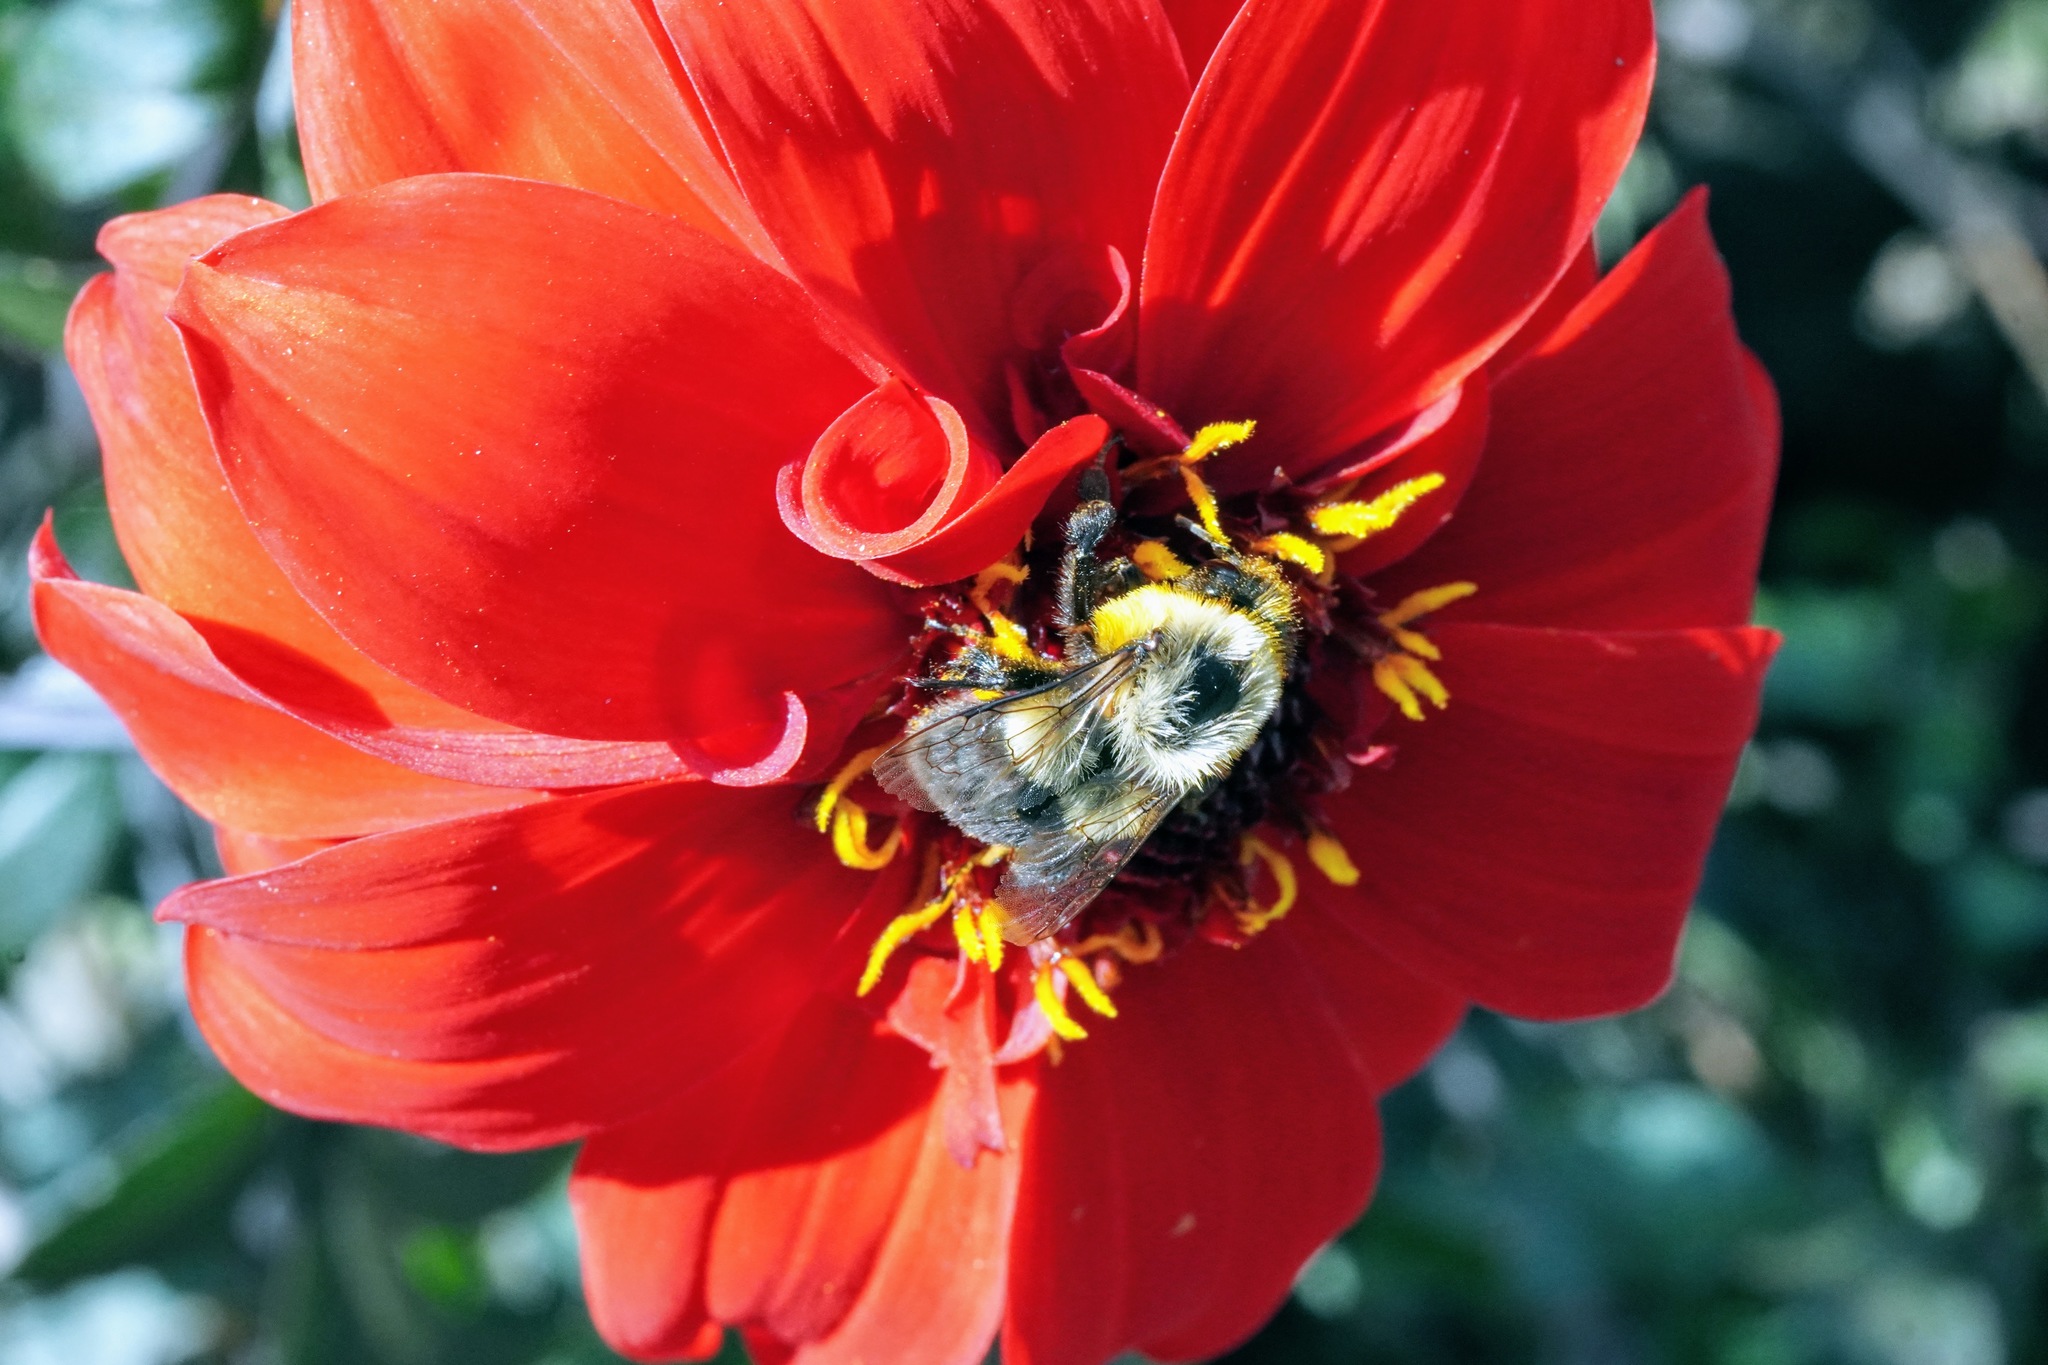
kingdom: Animalia
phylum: Arthropoda
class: Insecta
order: Hymenoptera
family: Apidae
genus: Bombus
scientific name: Bombus impatiens
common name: Common eastern bumble bee
